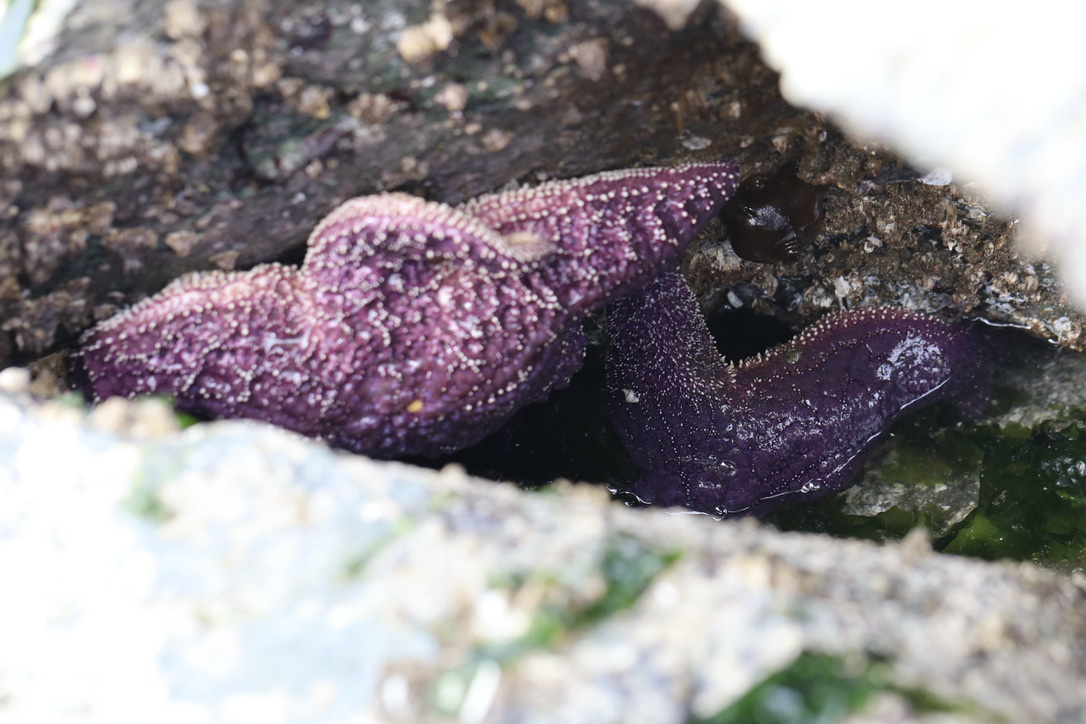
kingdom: Animalia
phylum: Echinodermata
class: Asteroidea
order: Forcipulatida
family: Asteriidae
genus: Pisaster
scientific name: Pisaster ochraceus
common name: Ochre stars
